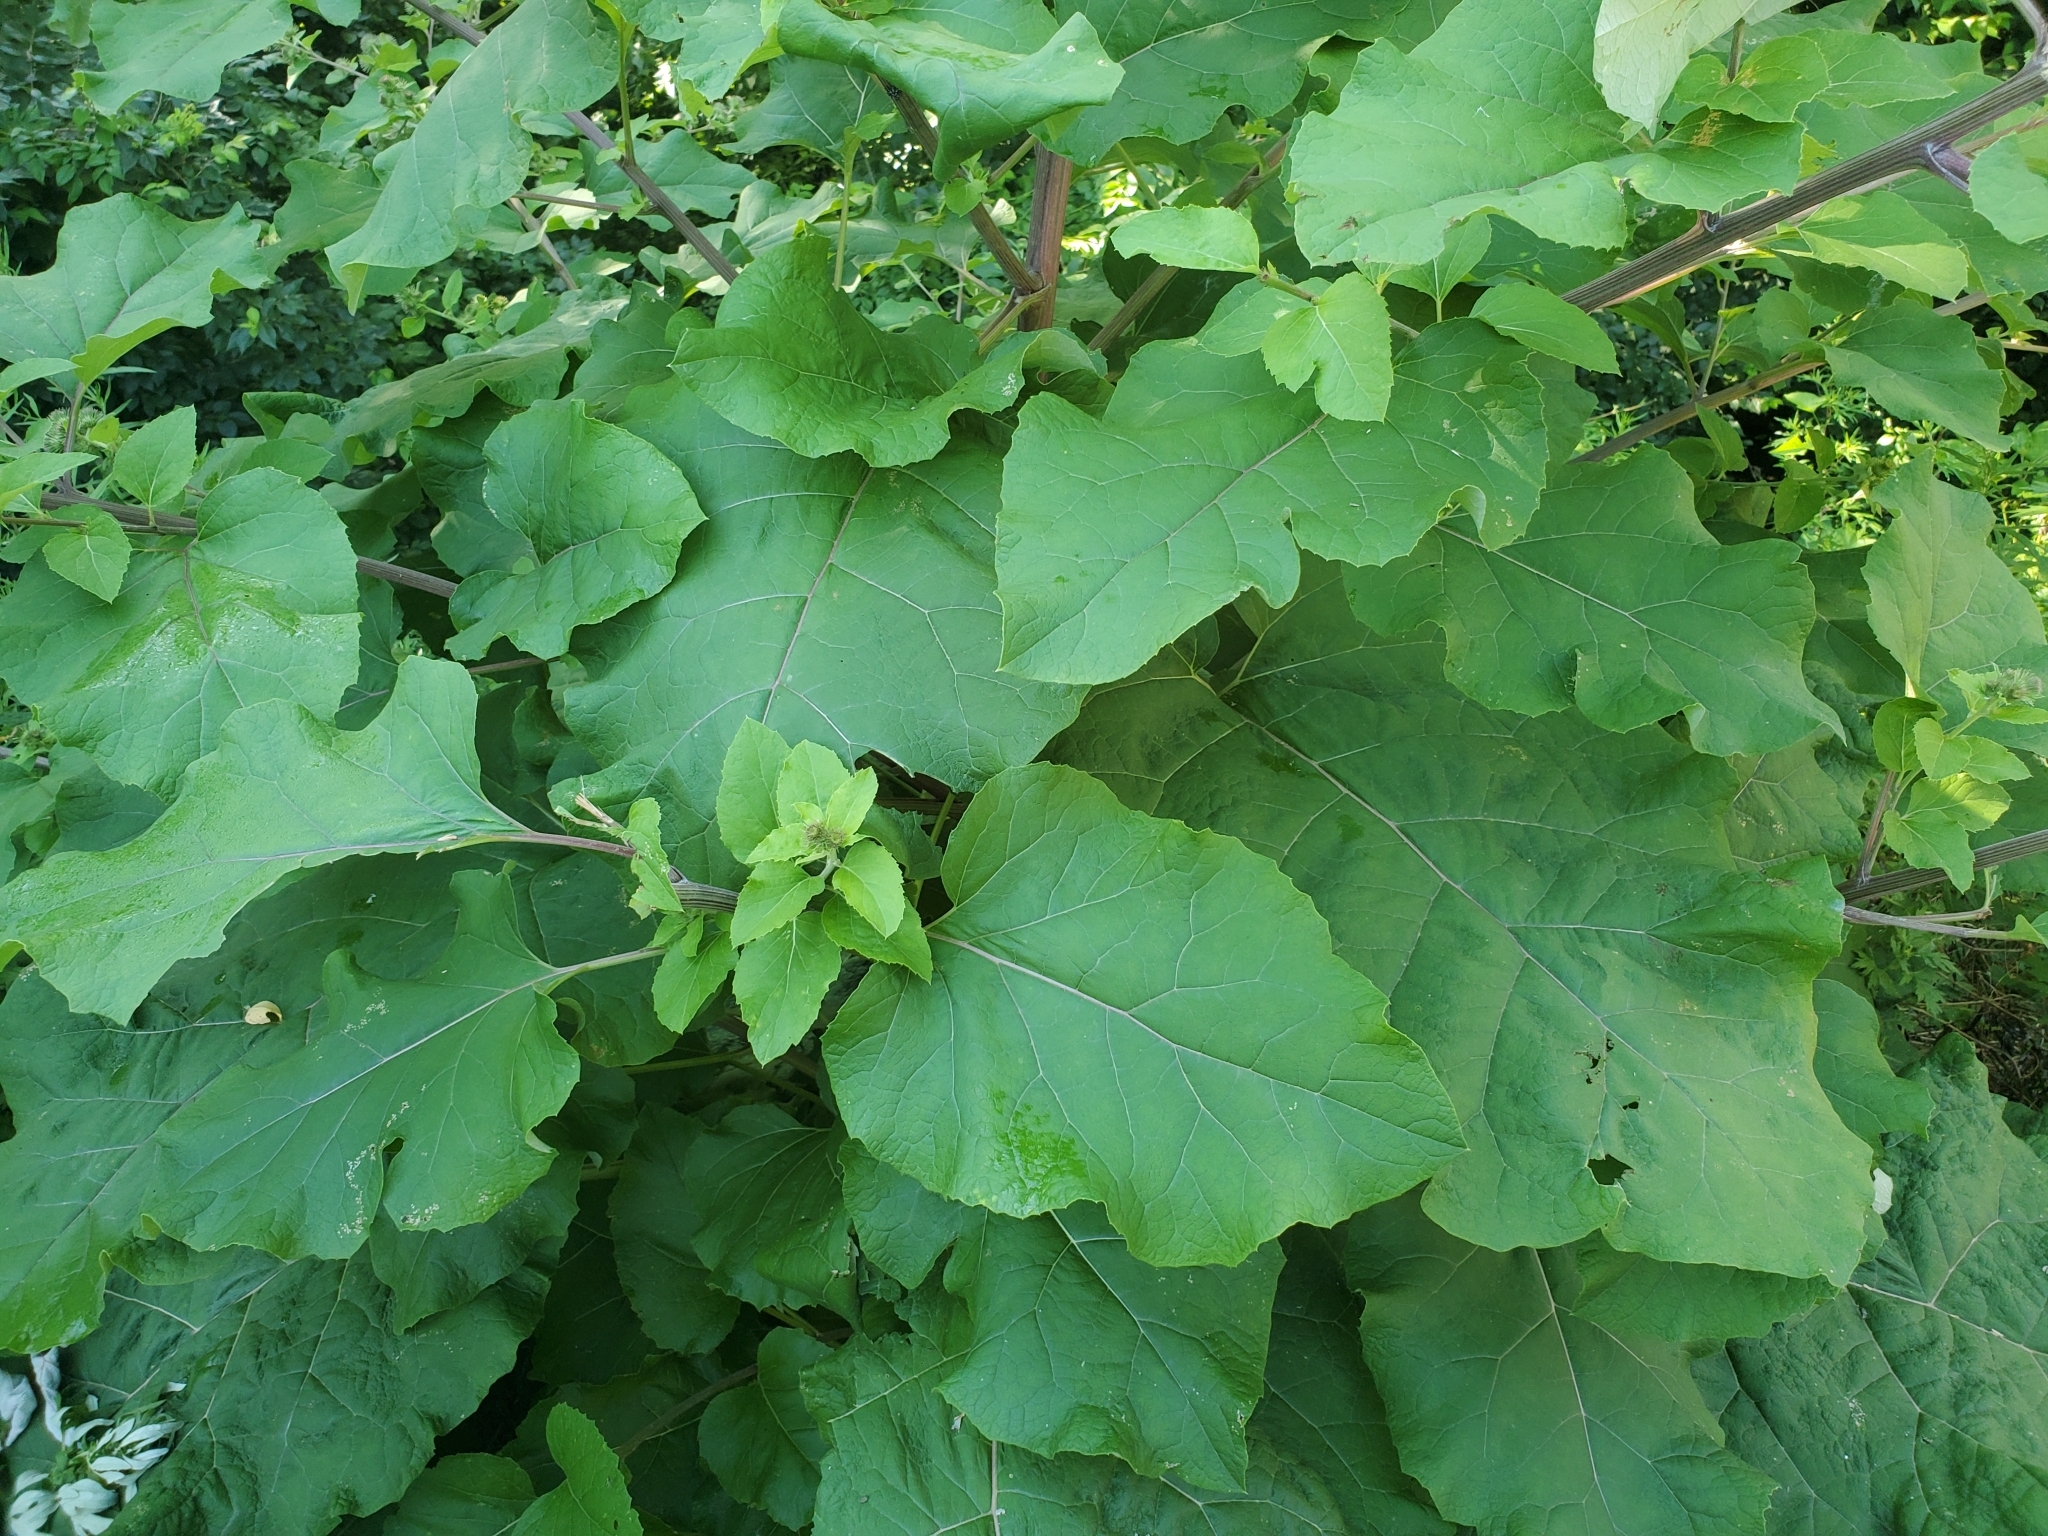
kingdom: Plantae
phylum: Tracheophyta
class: Magnoliopsida
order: Asterales
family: Asteraceae
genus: Arctium
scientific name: Arctium lappa
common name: Greater burdock
